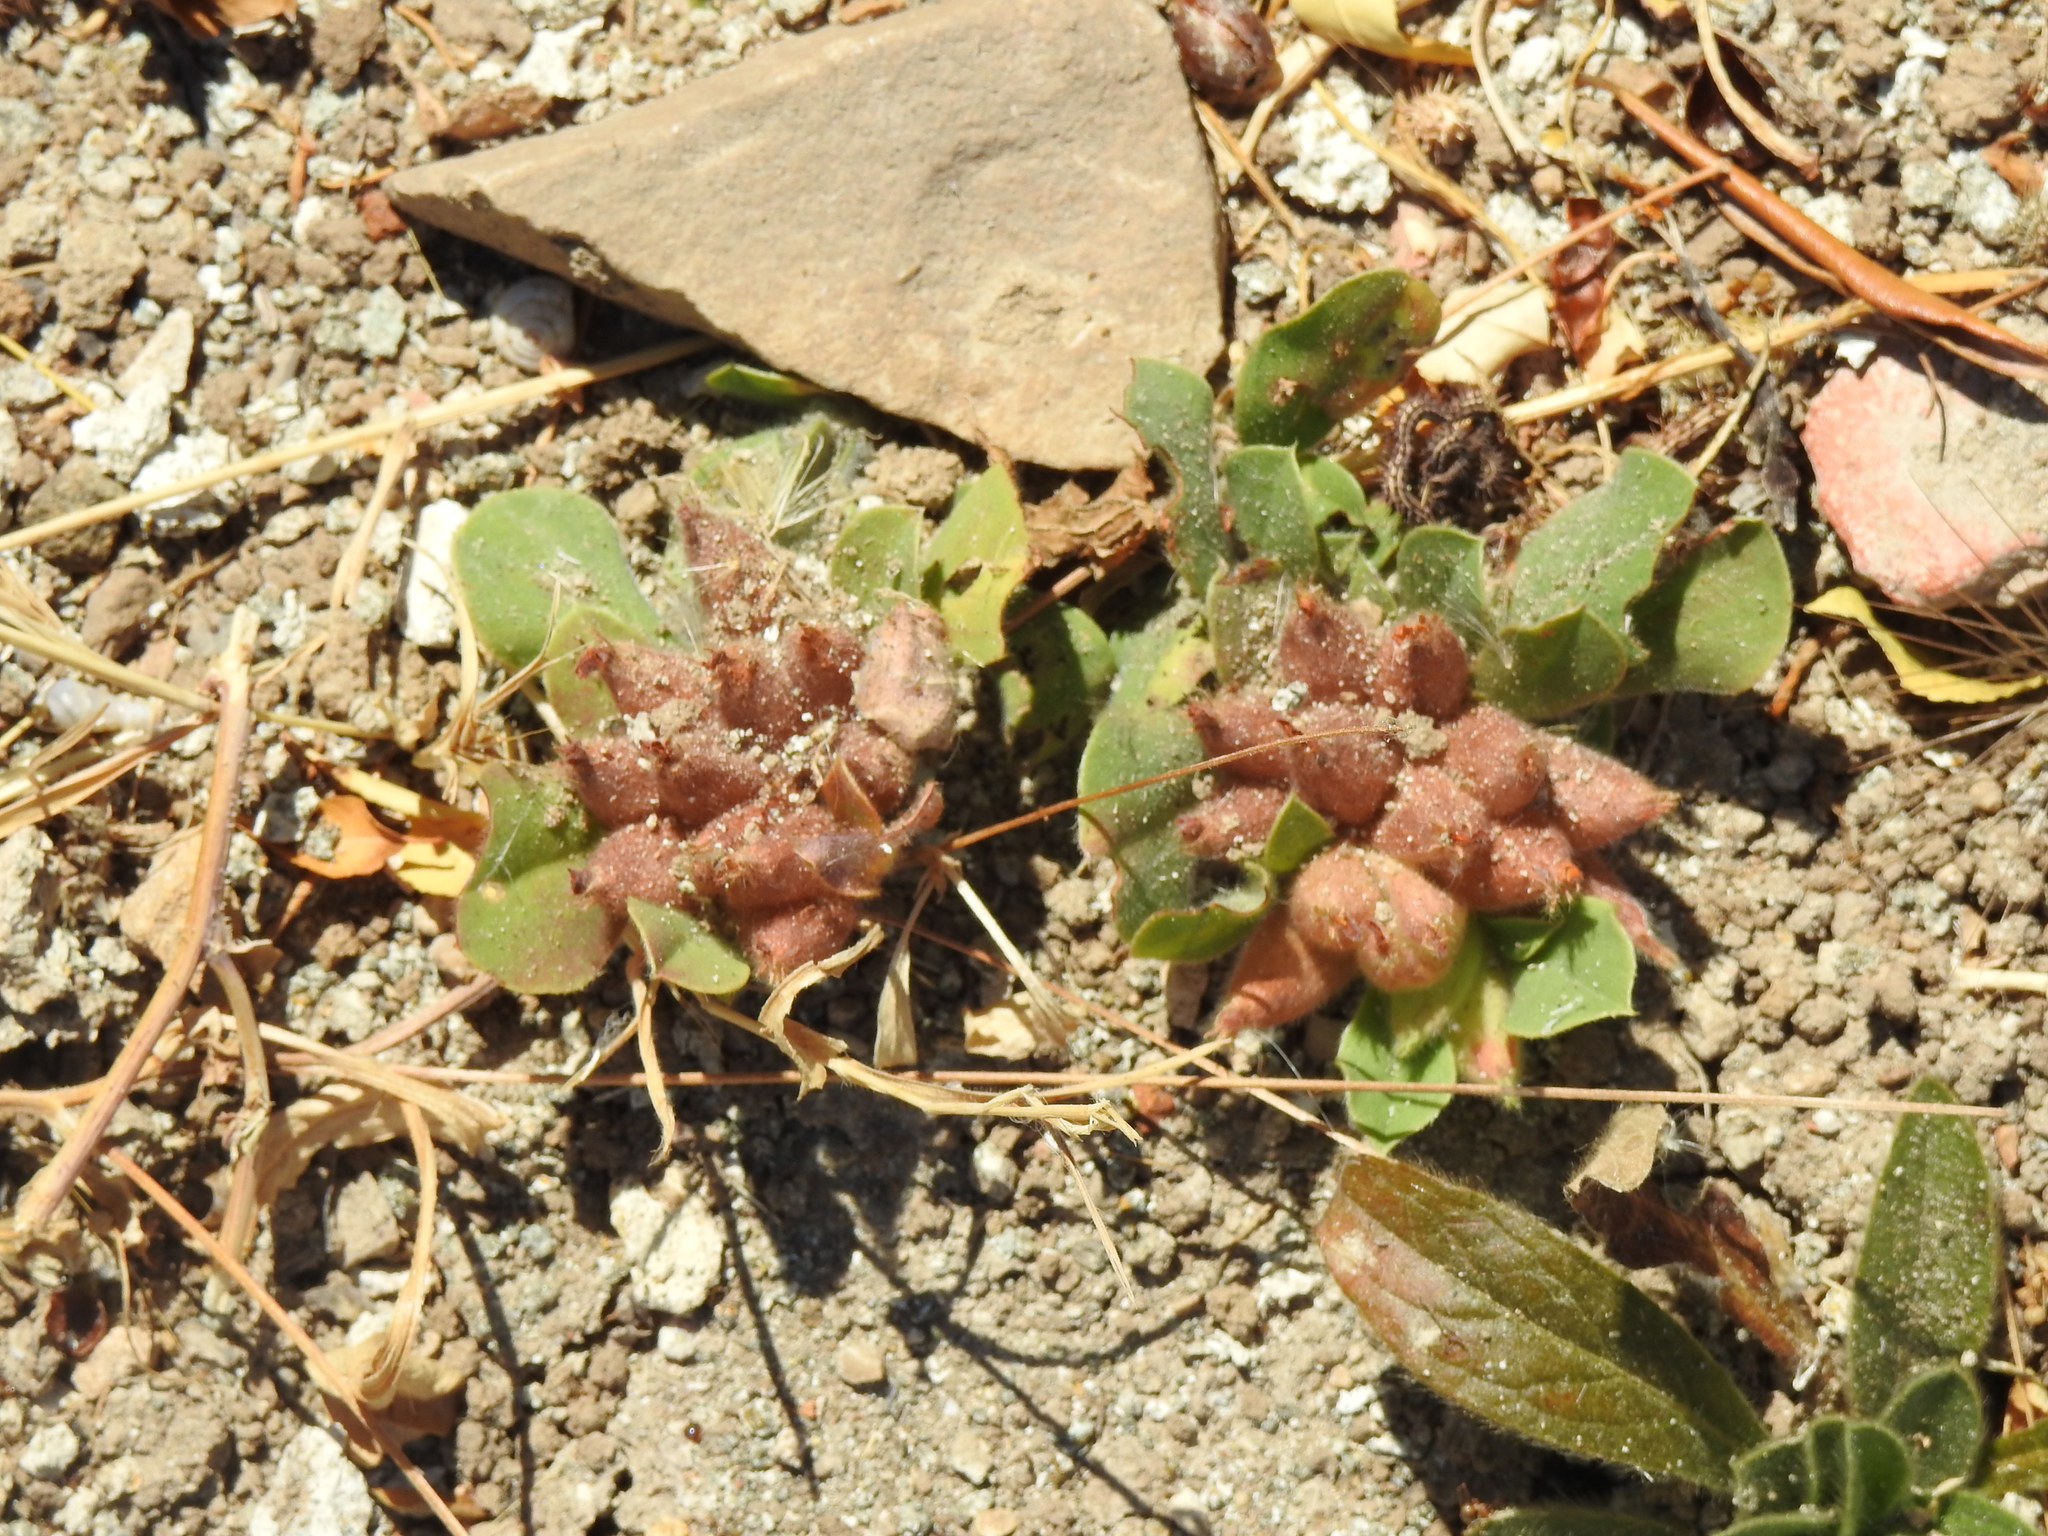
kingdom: Plantae
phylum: Tracheophyta
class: Magnoliopsida
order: Fabales
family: Fabaceae
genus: Tripodion
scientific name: Tripodion tetraphyllum
